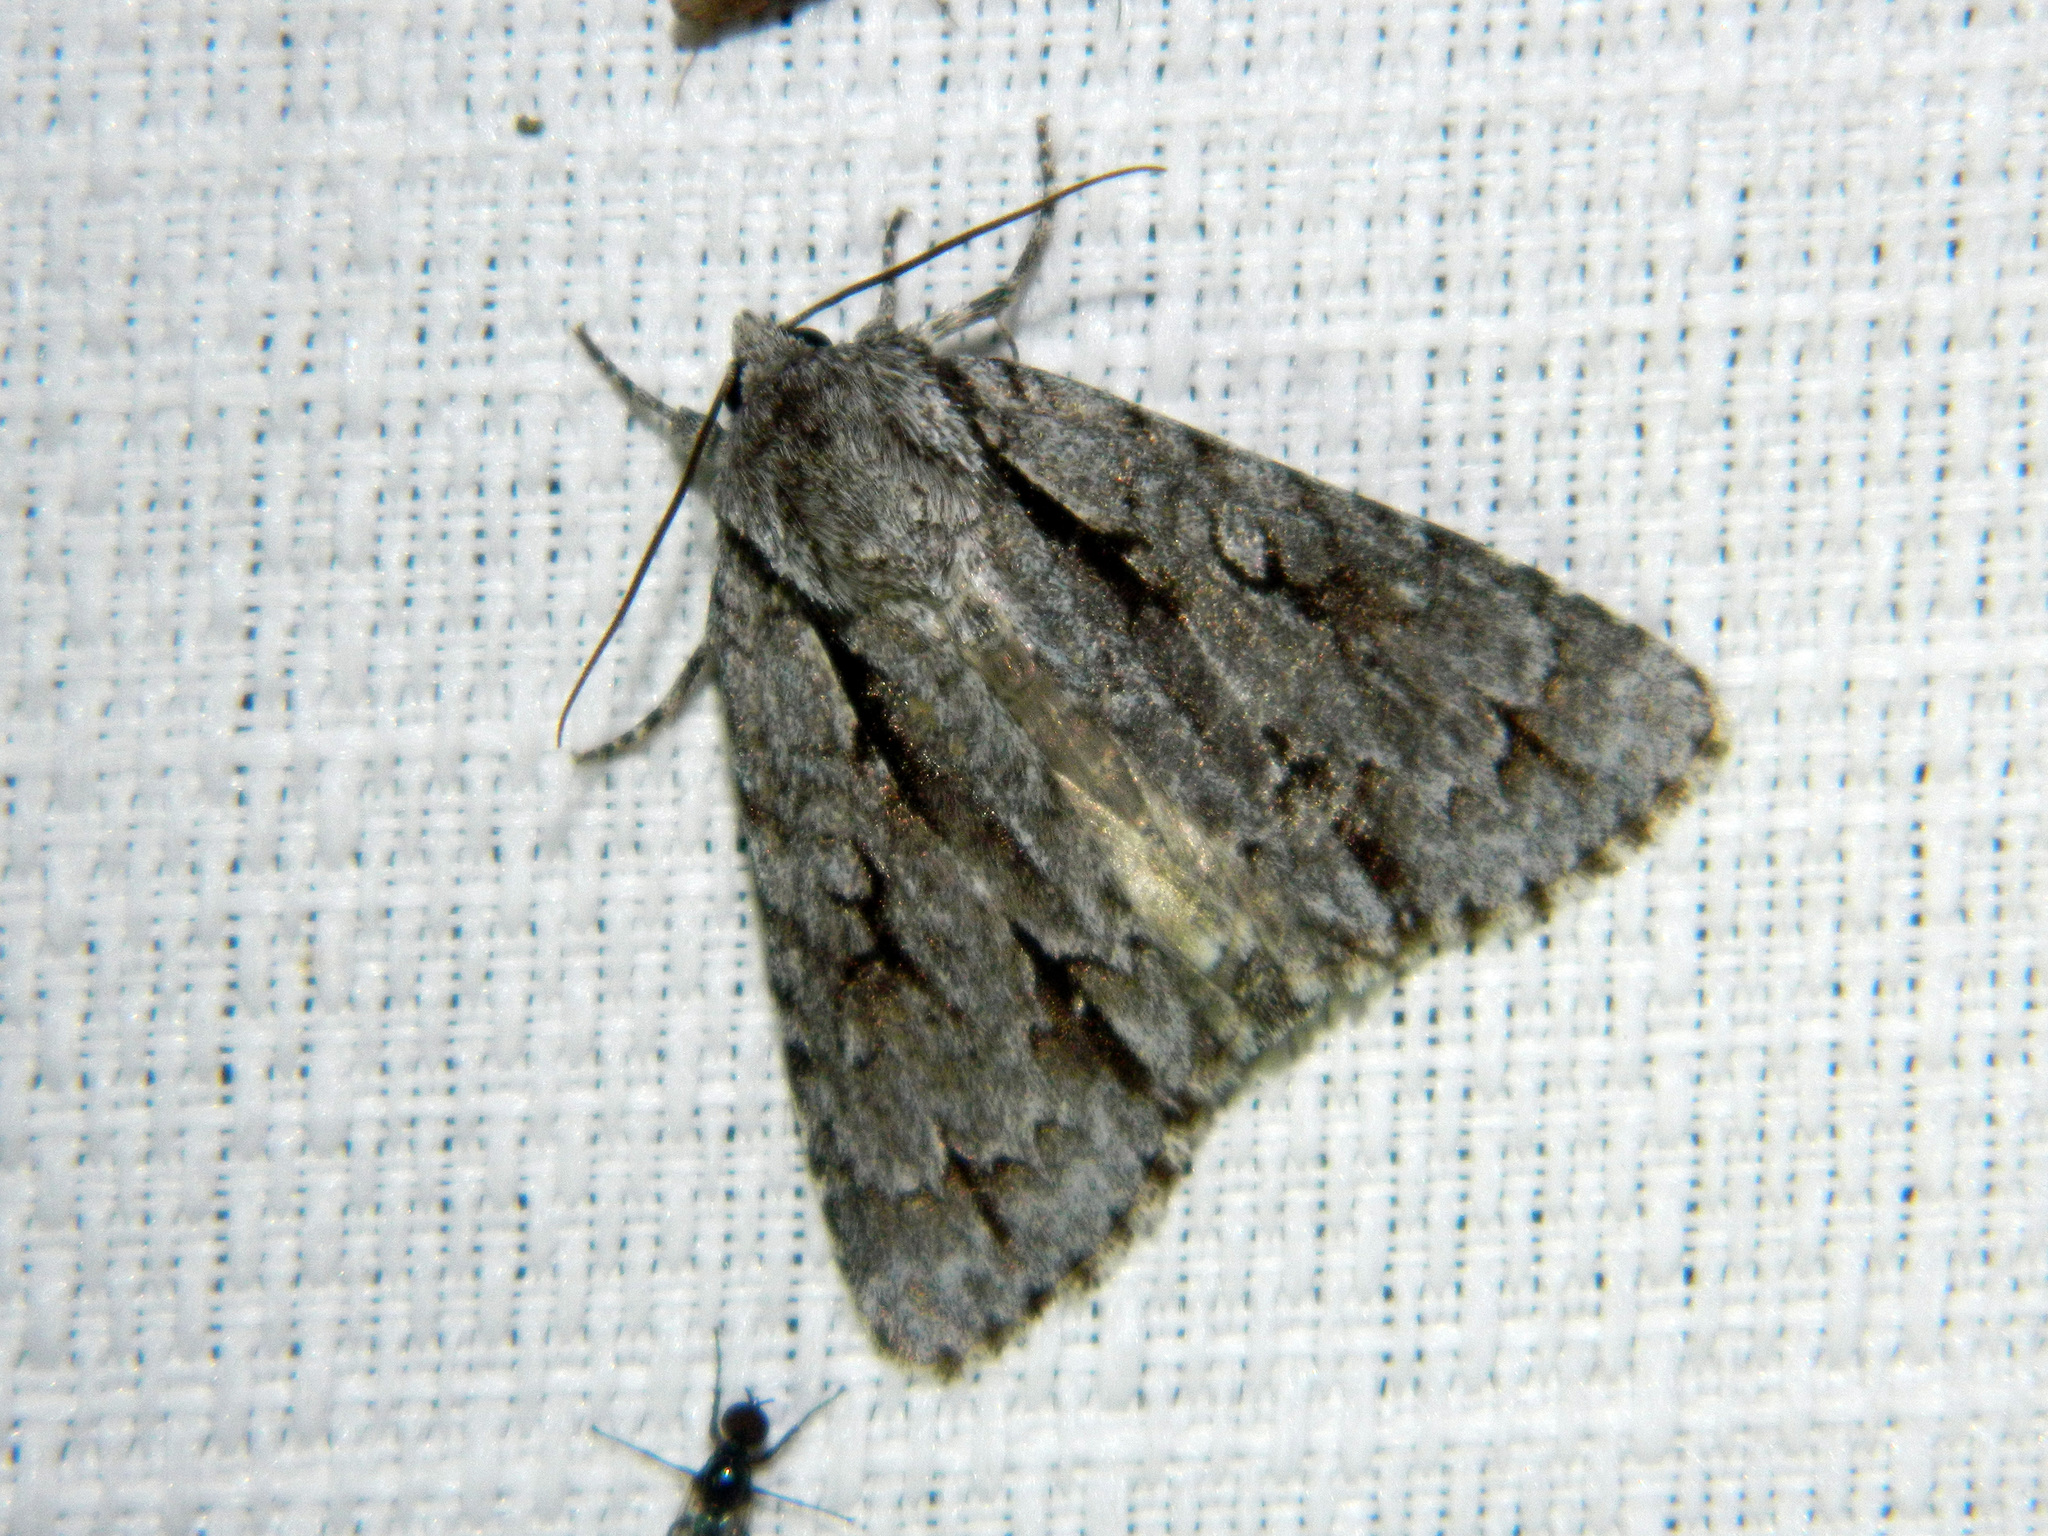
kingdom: Animalia
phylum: Arthropoda
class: Insecta
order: Lepidoptera
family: Noctuidae
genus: Acronicta
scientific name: Acronicta hasta
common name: Cherry dagger
